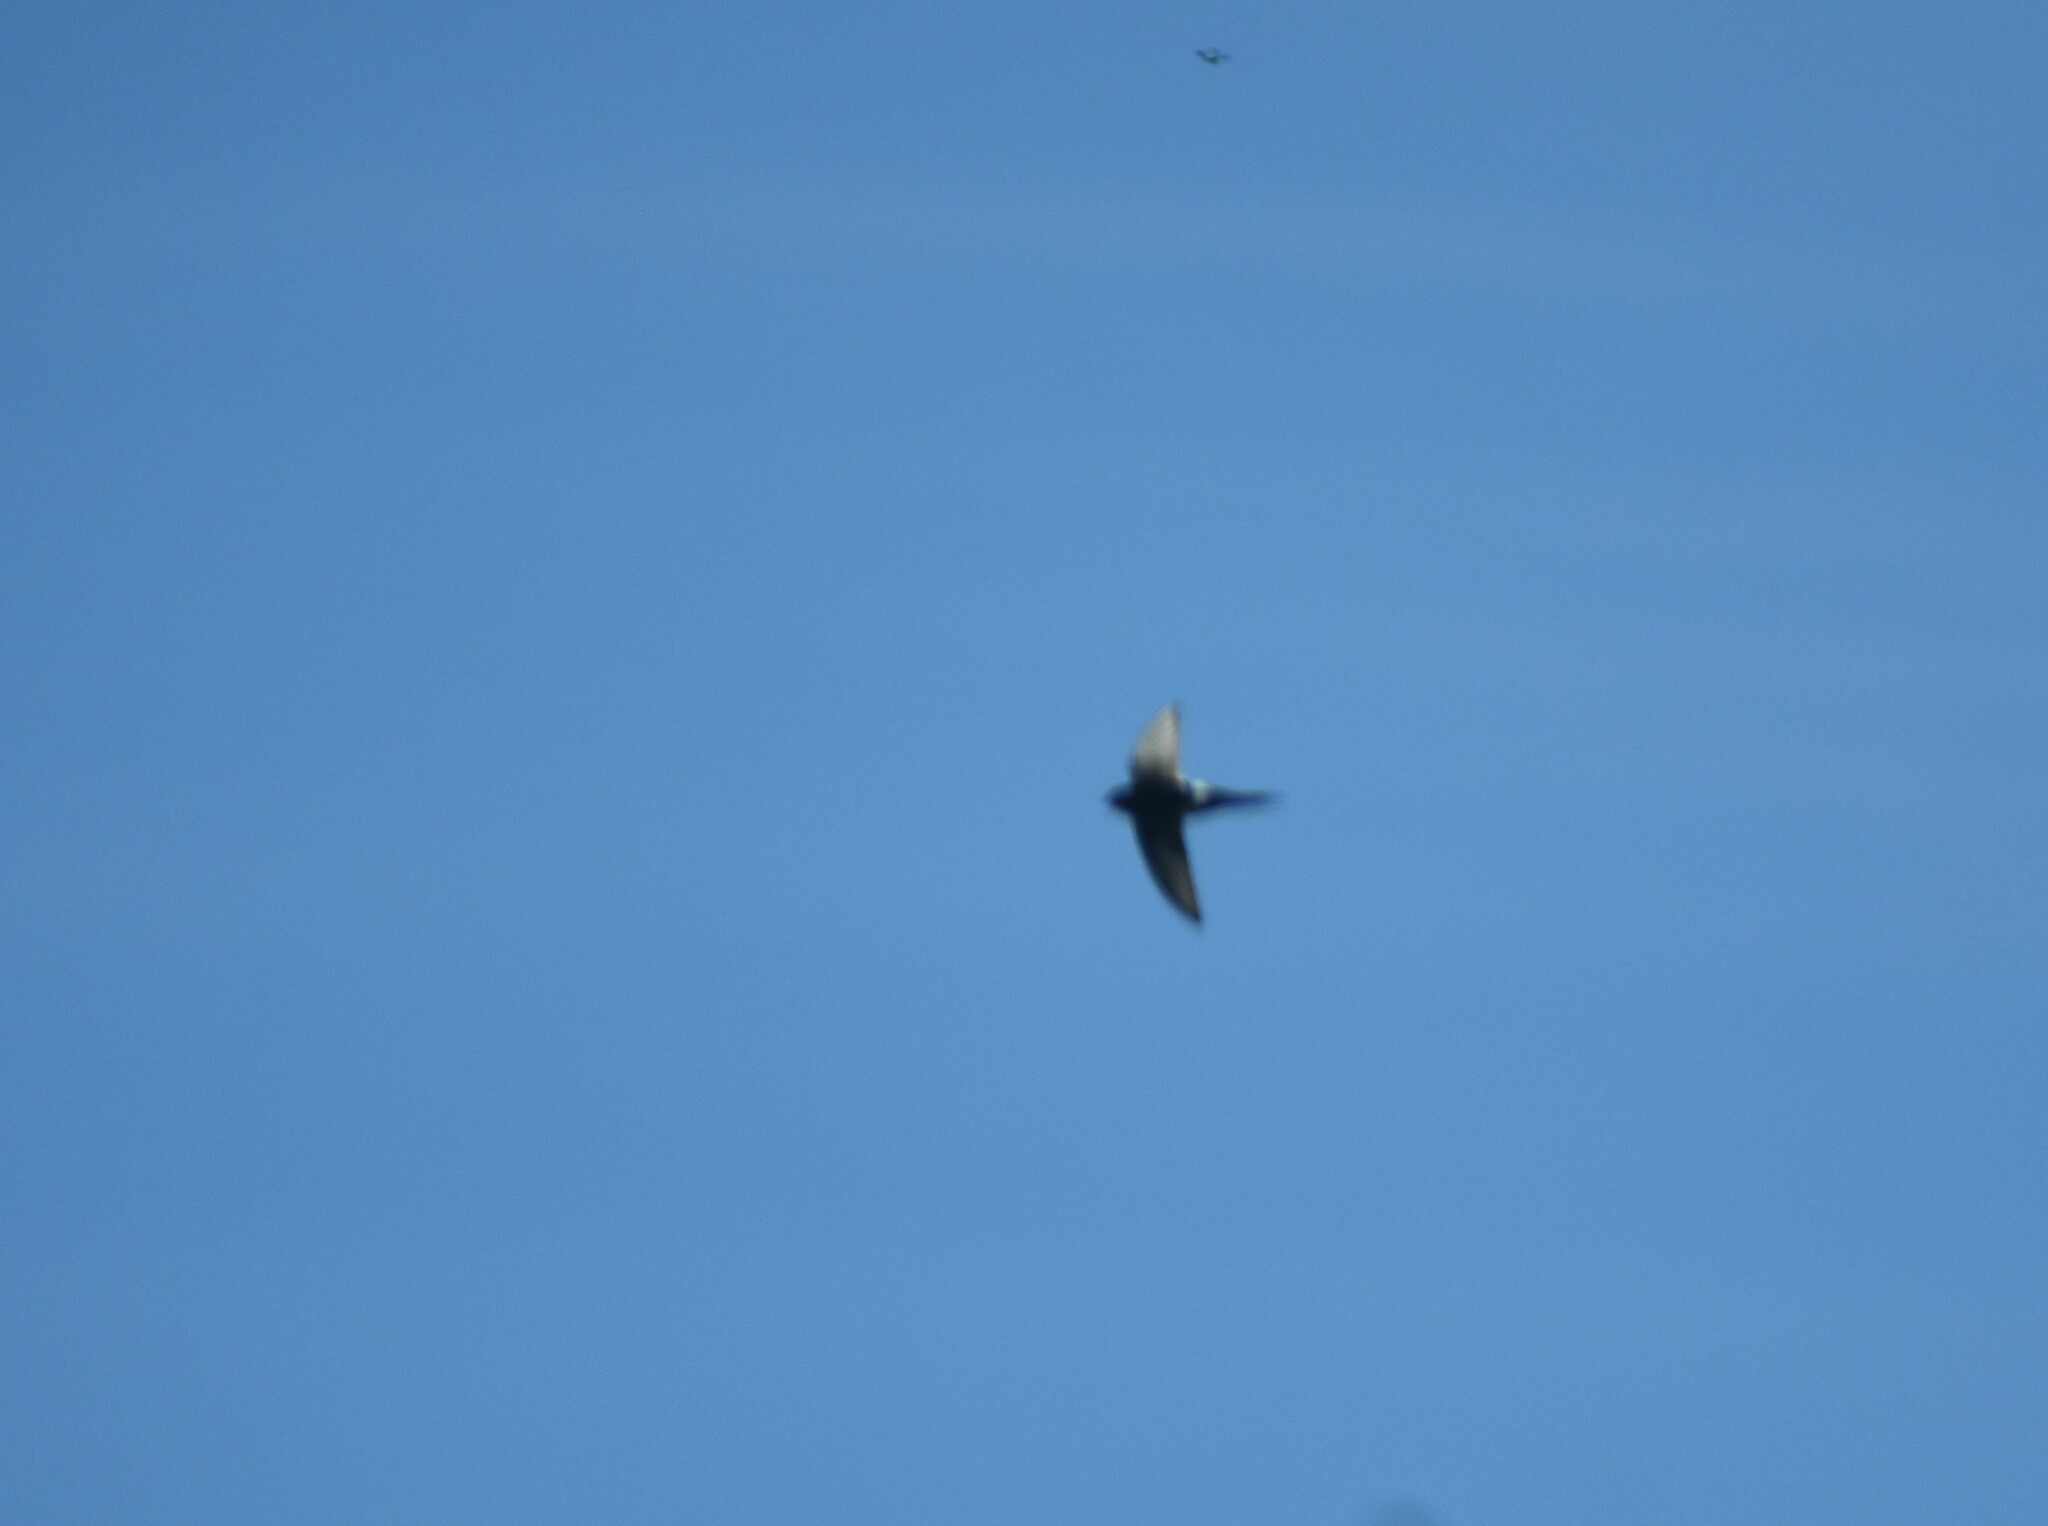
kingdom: Animalia
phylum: Chordata
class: Aves
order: Apodiformes
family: Apodidae
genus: Apus
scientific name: Apus caffer
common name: White-rumped swift
